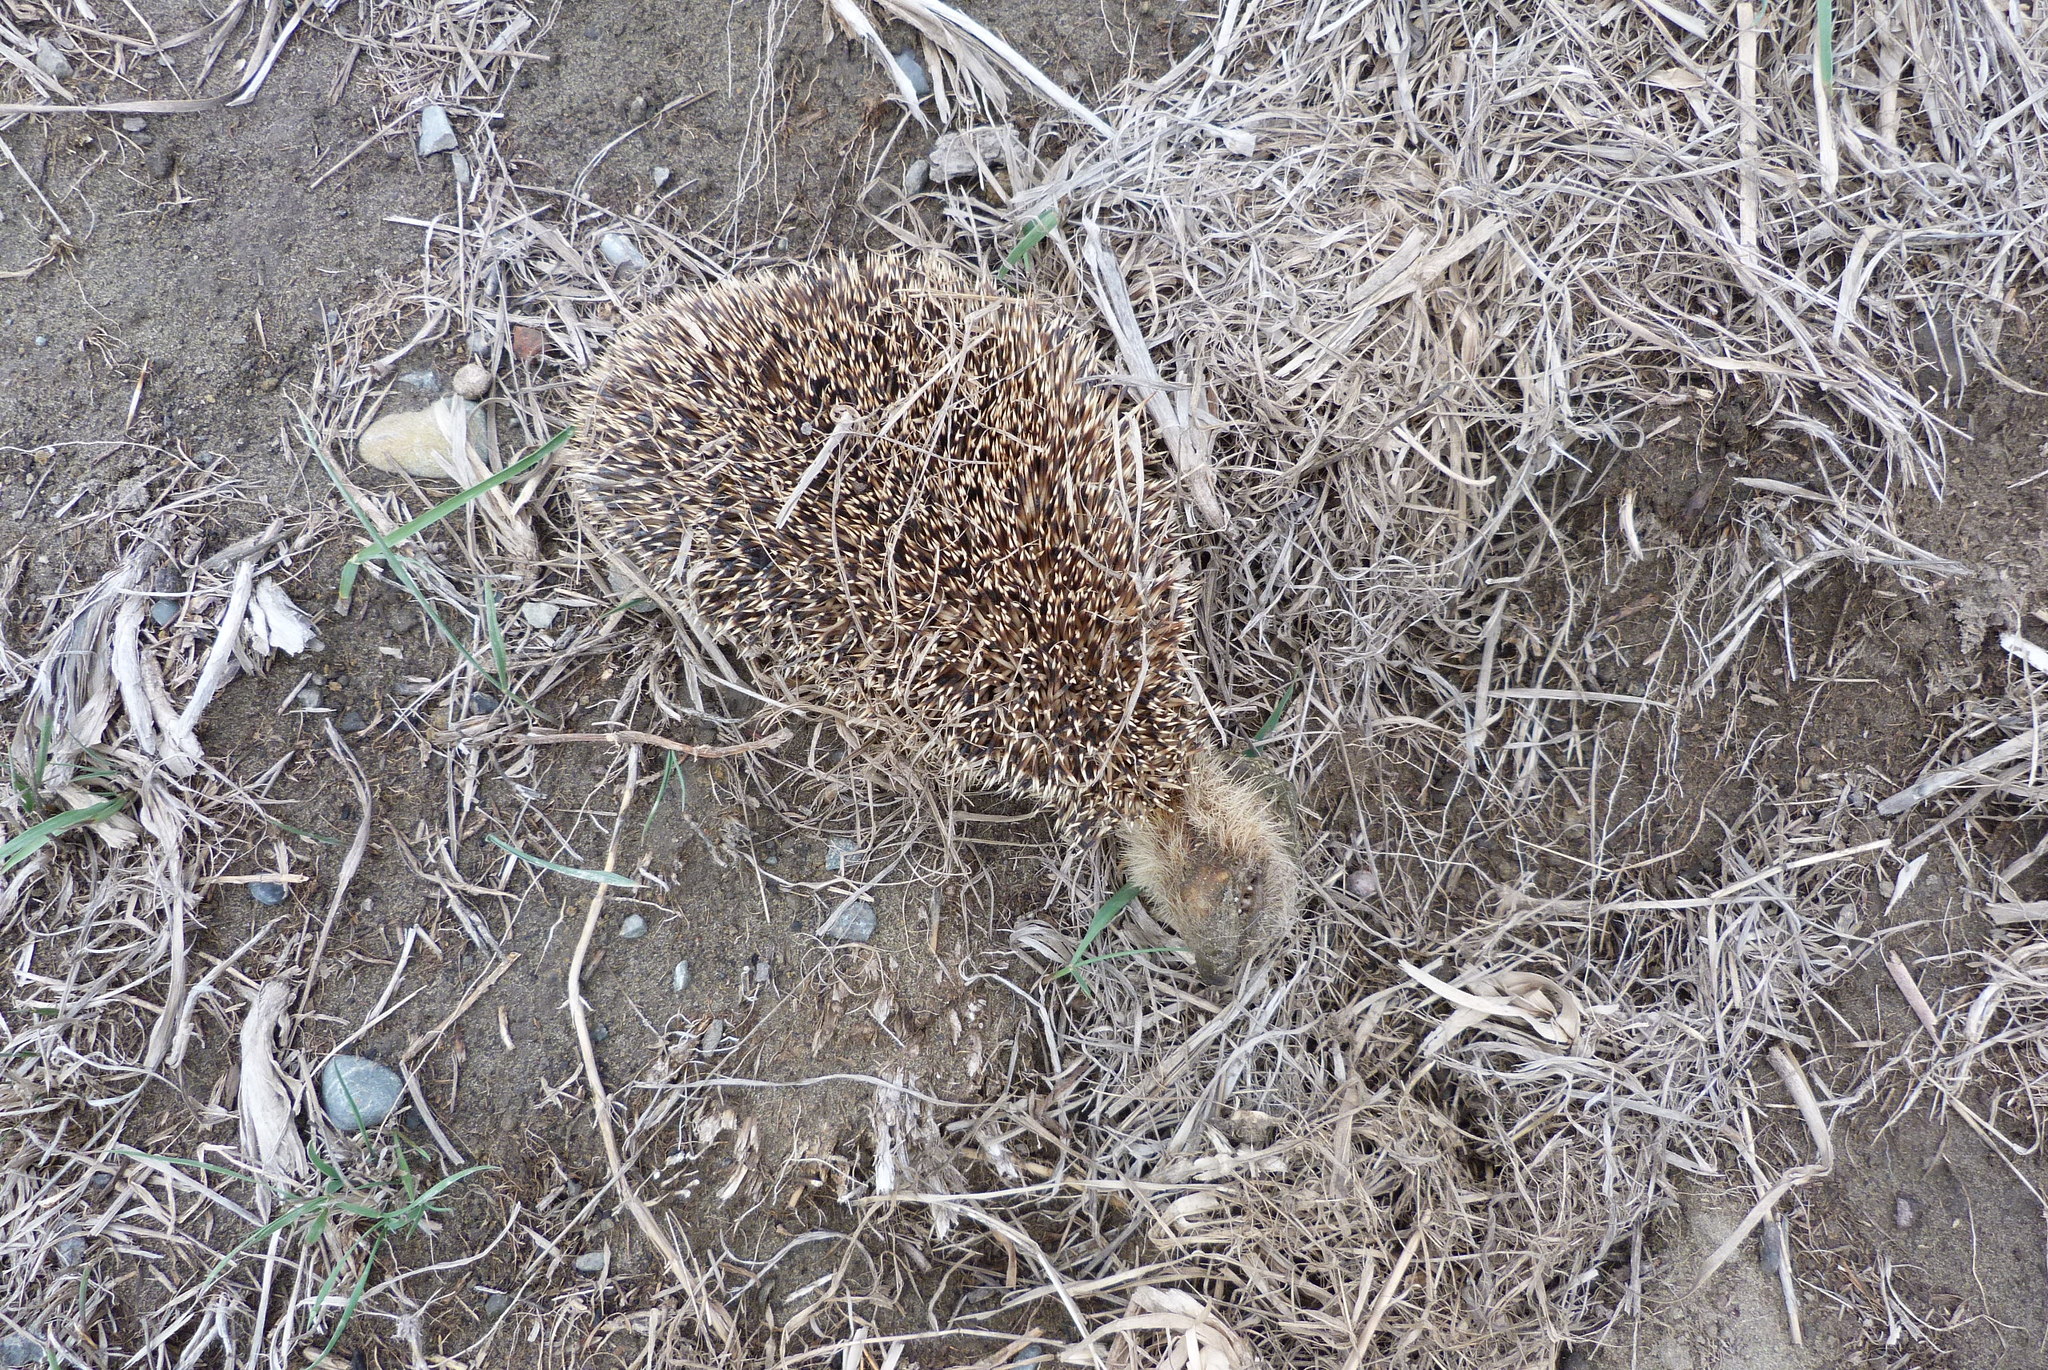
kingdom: Animalia
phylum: Chordata
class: Mammalia
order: Erinaceomorpha
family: Erinaceidae
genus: Erinaceus
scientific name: Erinaceus europaeus
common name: West european hedgehog
